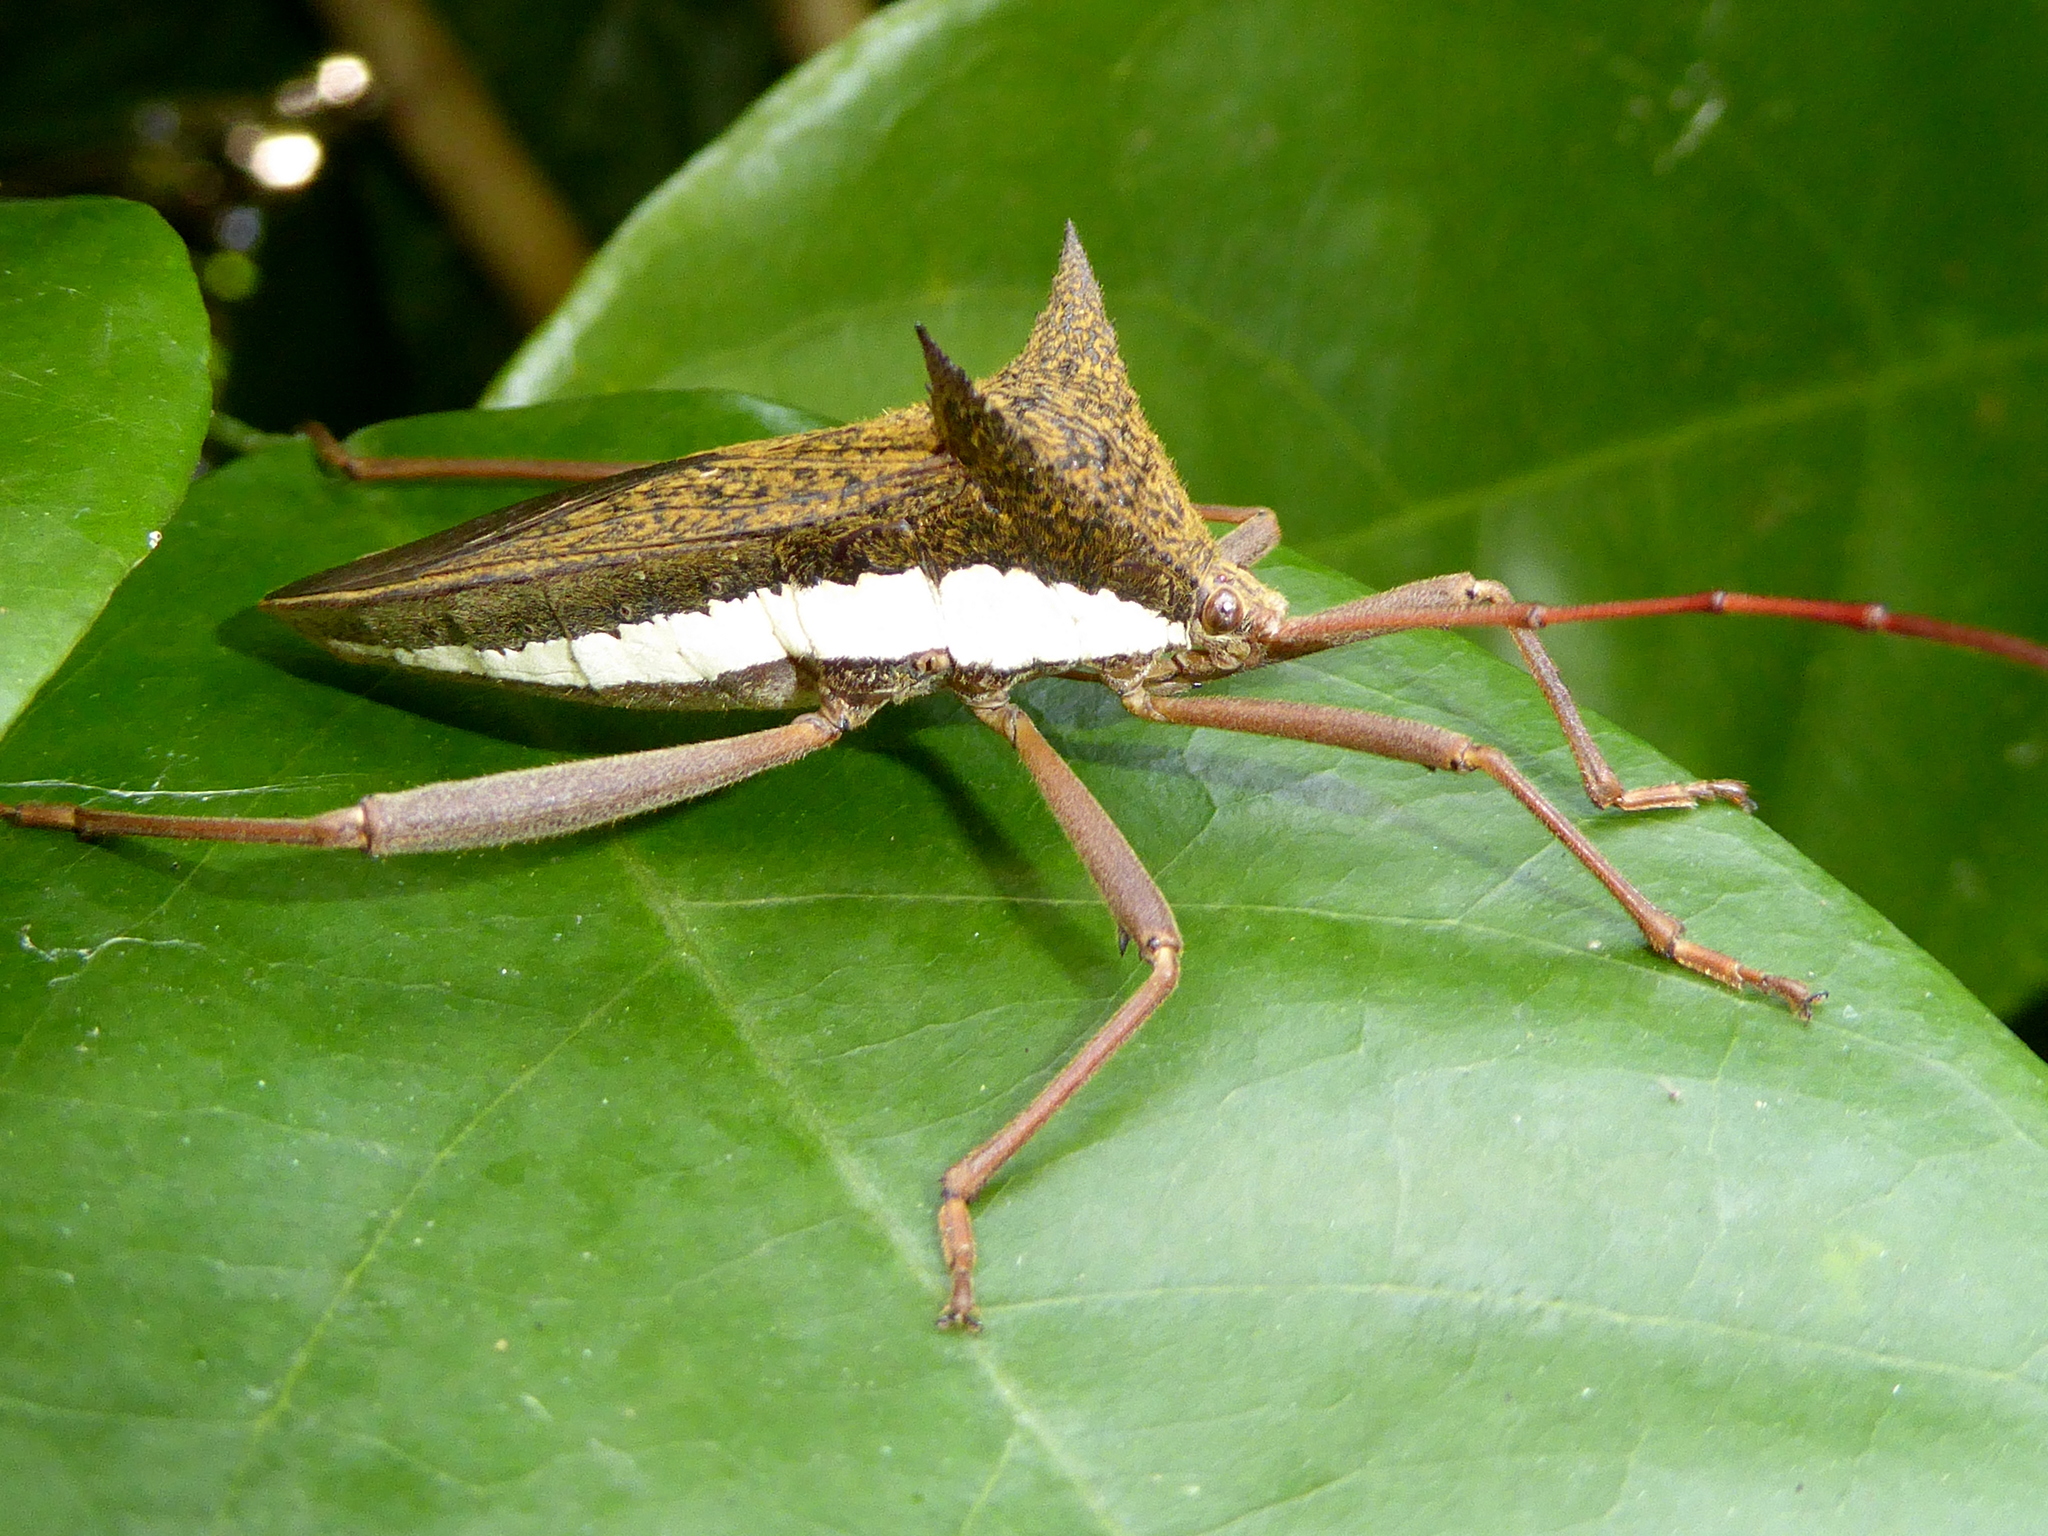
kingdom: Animalia
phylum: Arthropoda
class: Insecta
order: Hemiptera
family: Coreidae
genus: Aspilosterna
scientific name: Aspilosterna albovittata
